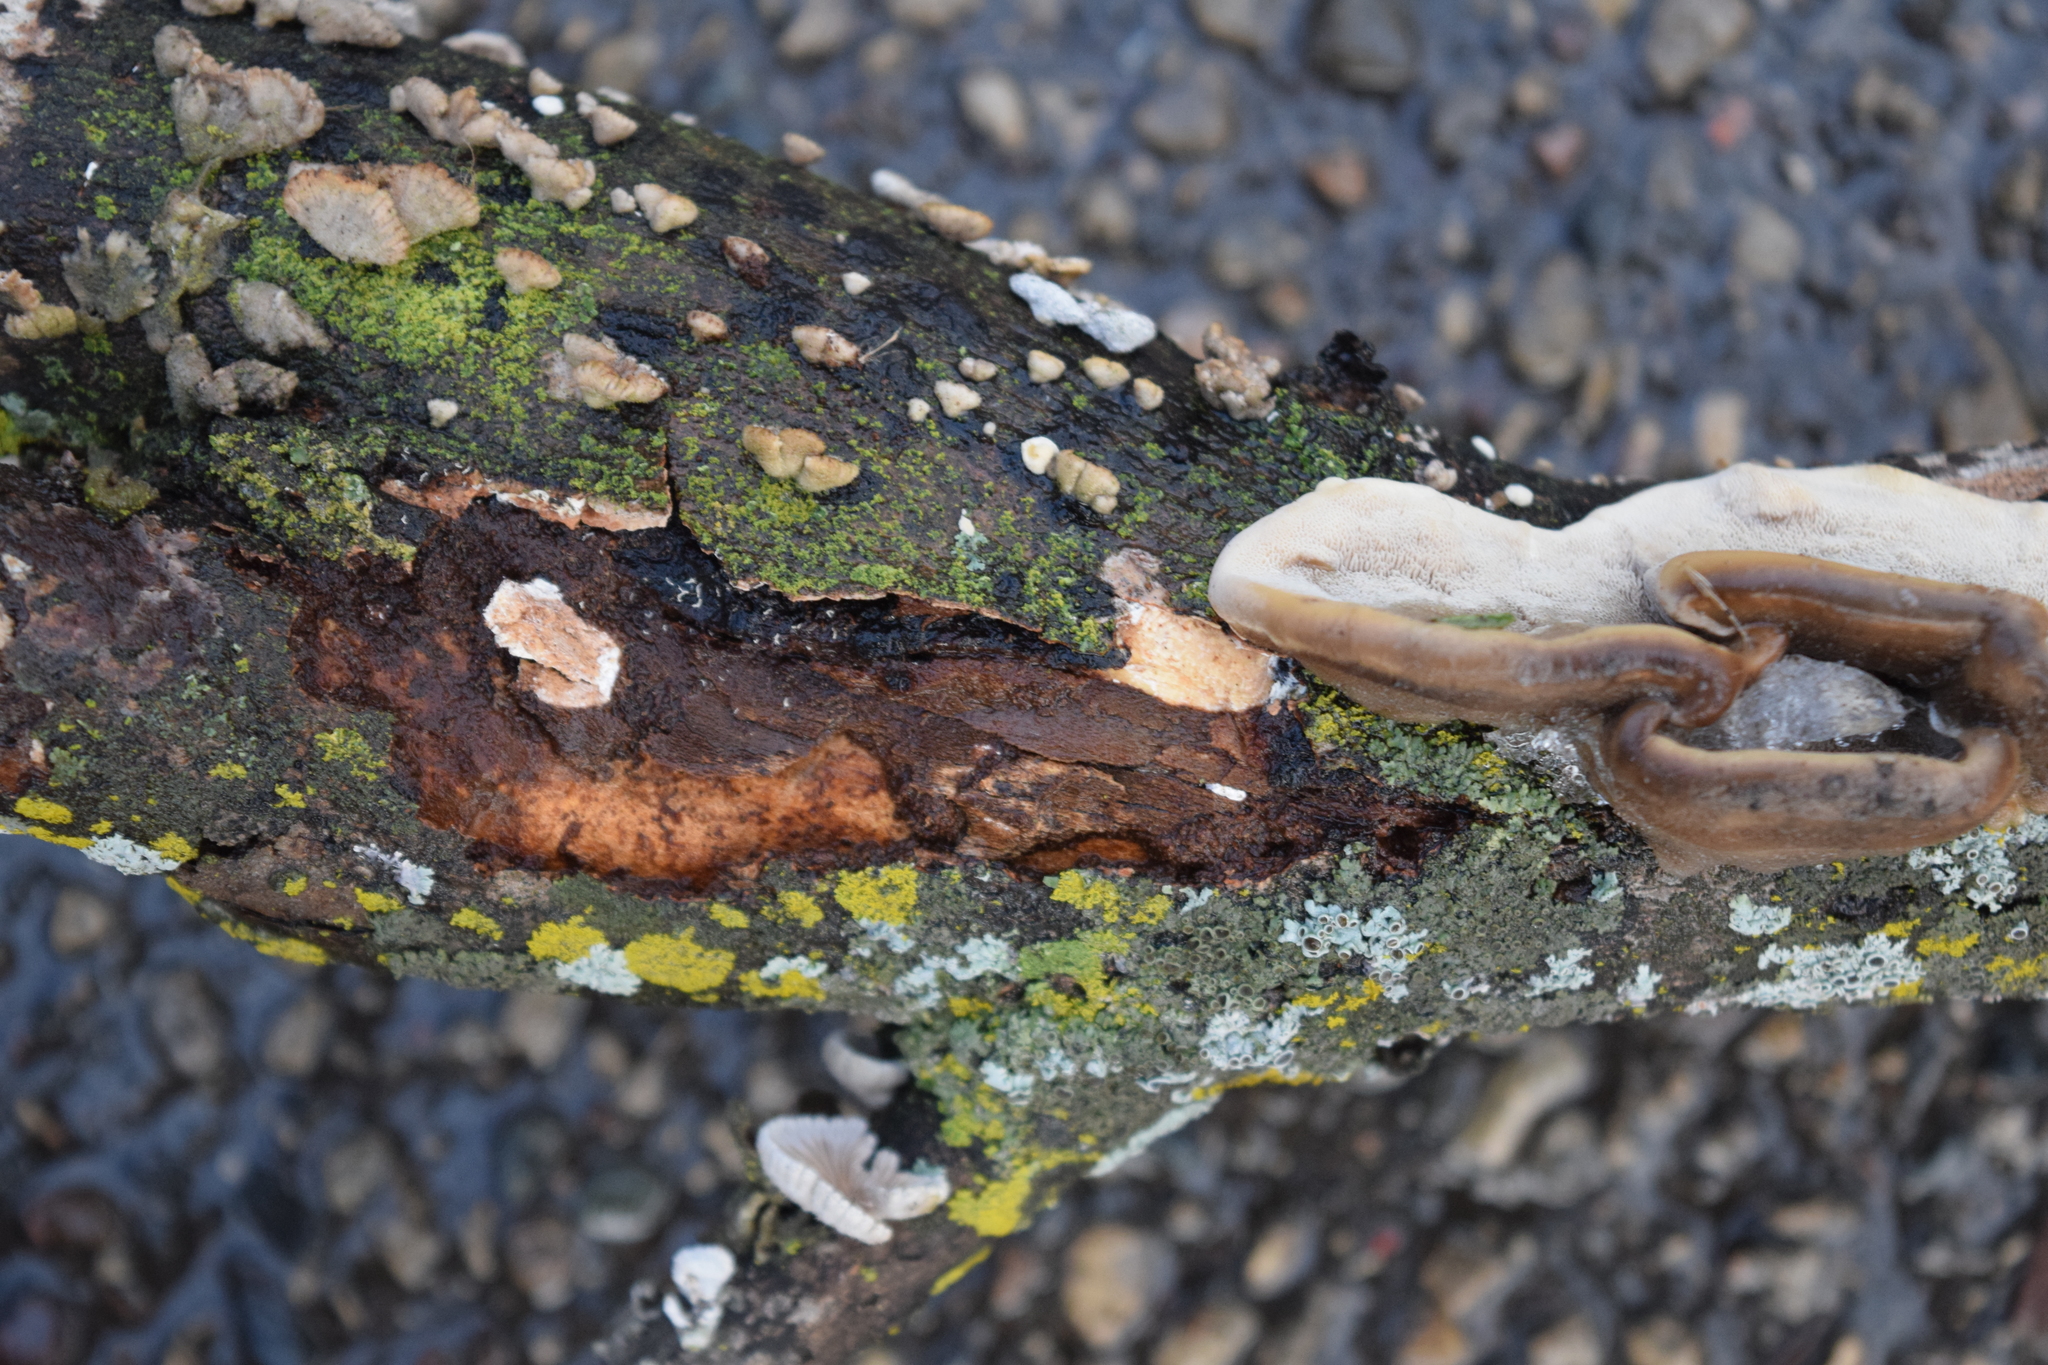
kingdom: Fungi
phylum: Basidiomycota
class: Agaricomycetes
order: Agaricales
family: Schizophyllaceae
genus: Schizophyllum
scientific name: Schizophyllum commune
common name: Common porecrust
